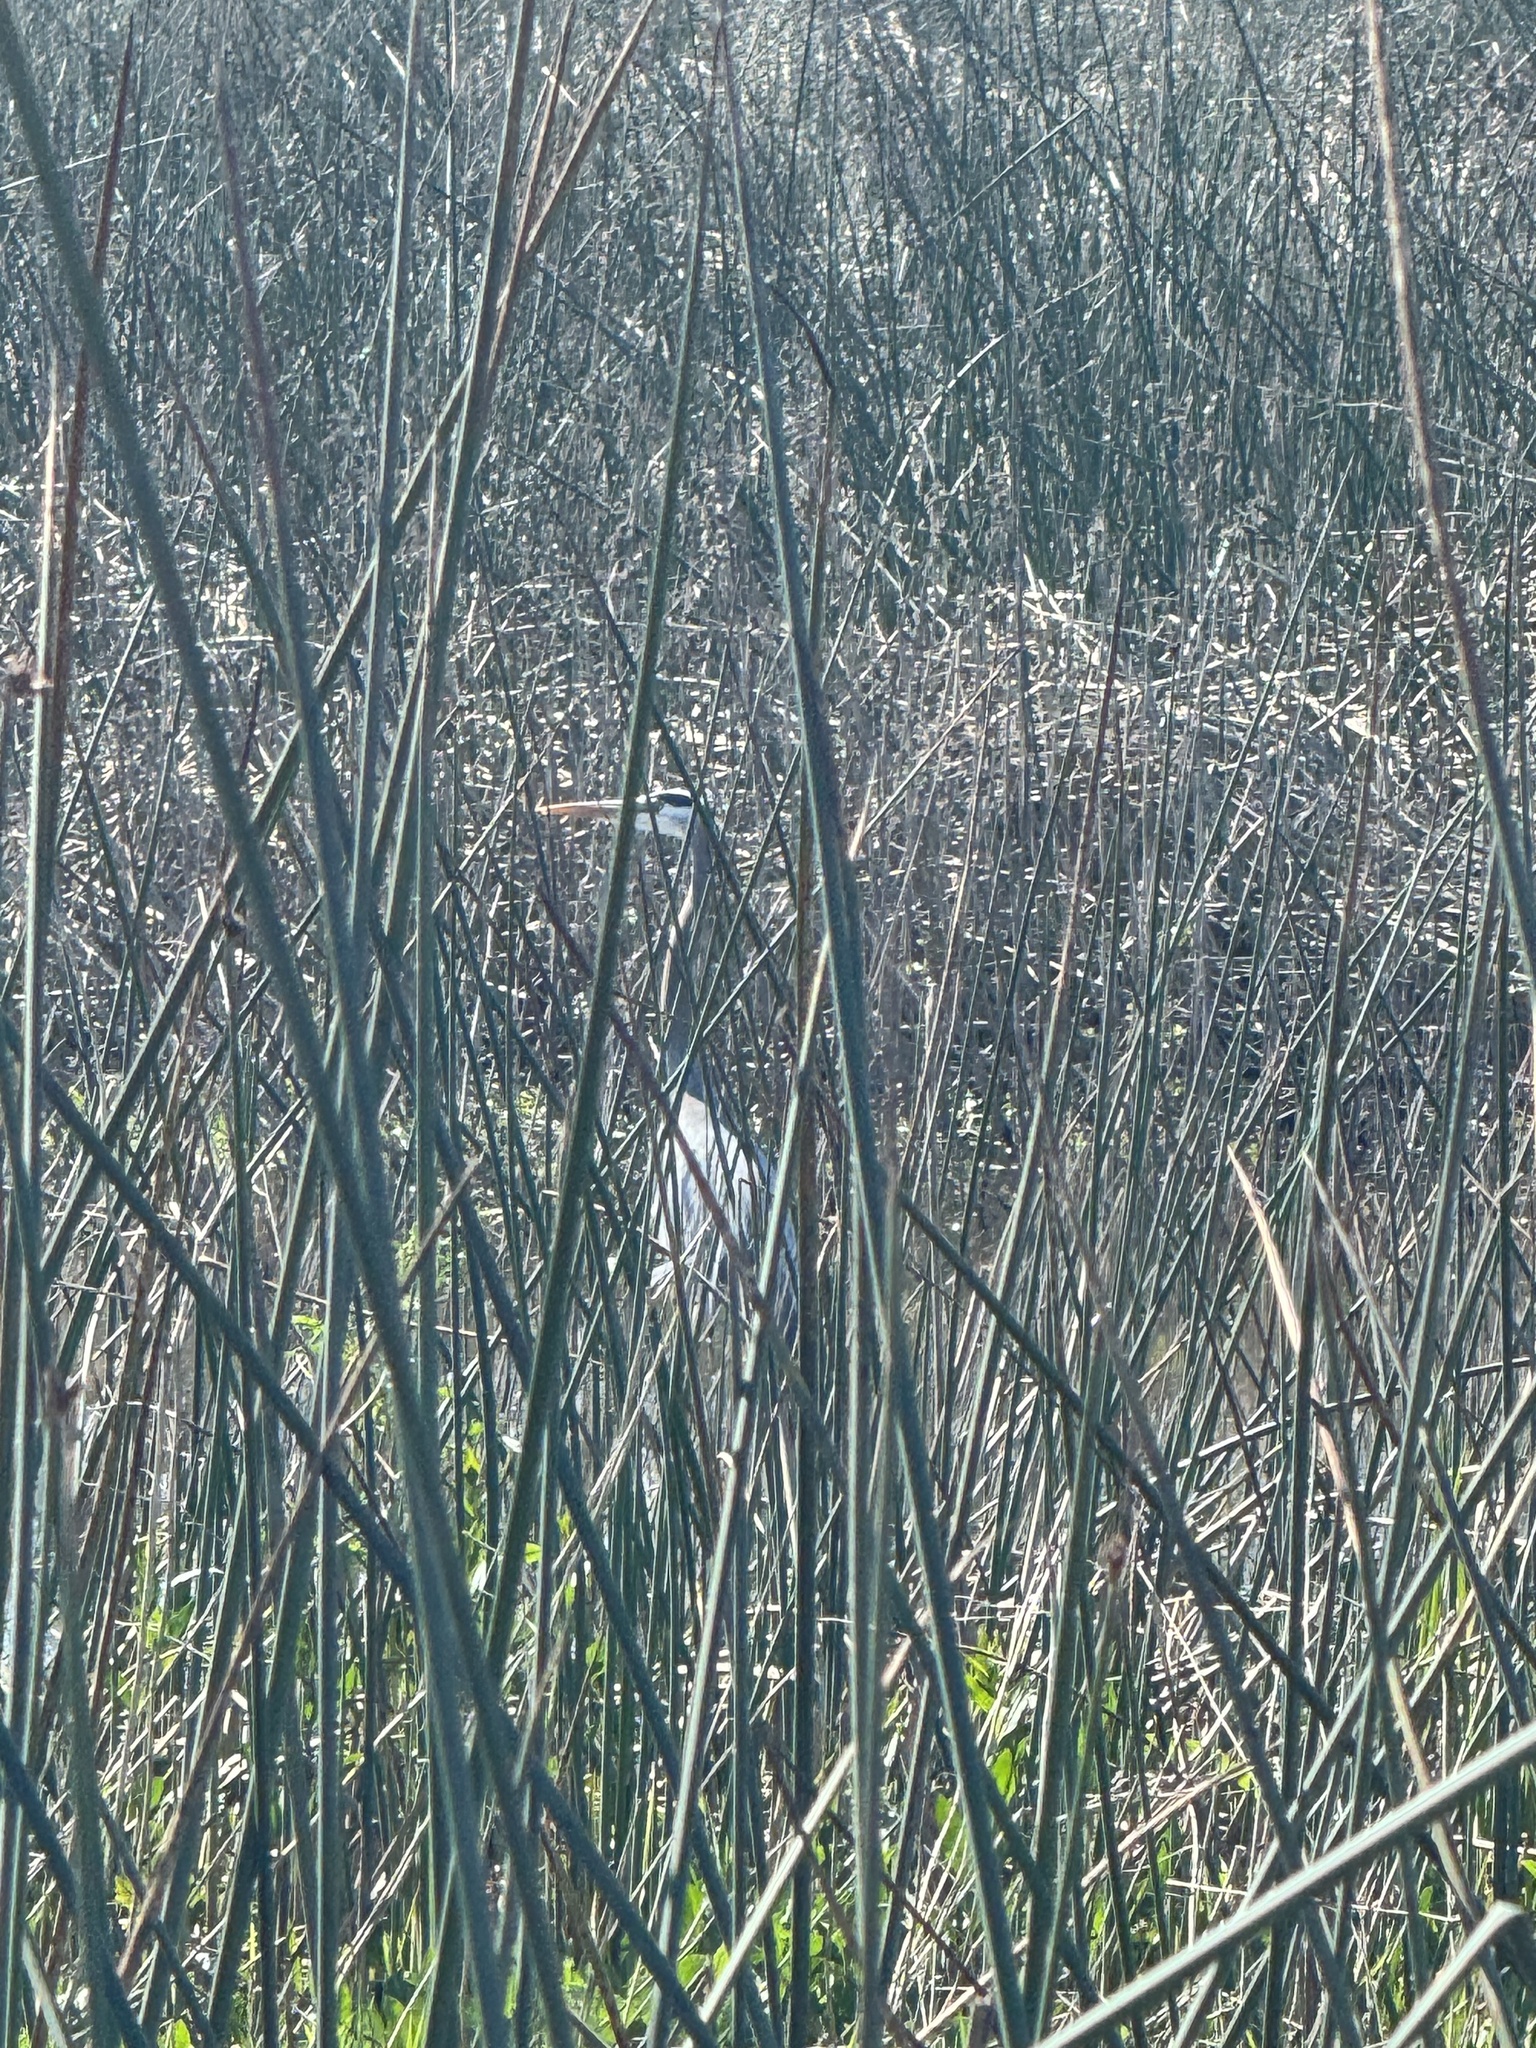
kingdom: Animalia
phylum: Chordata
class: Aves
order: Pelecaniformes
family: Ardeidae
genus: Ardea
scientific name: Ardea herodias
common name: Great blue heron
